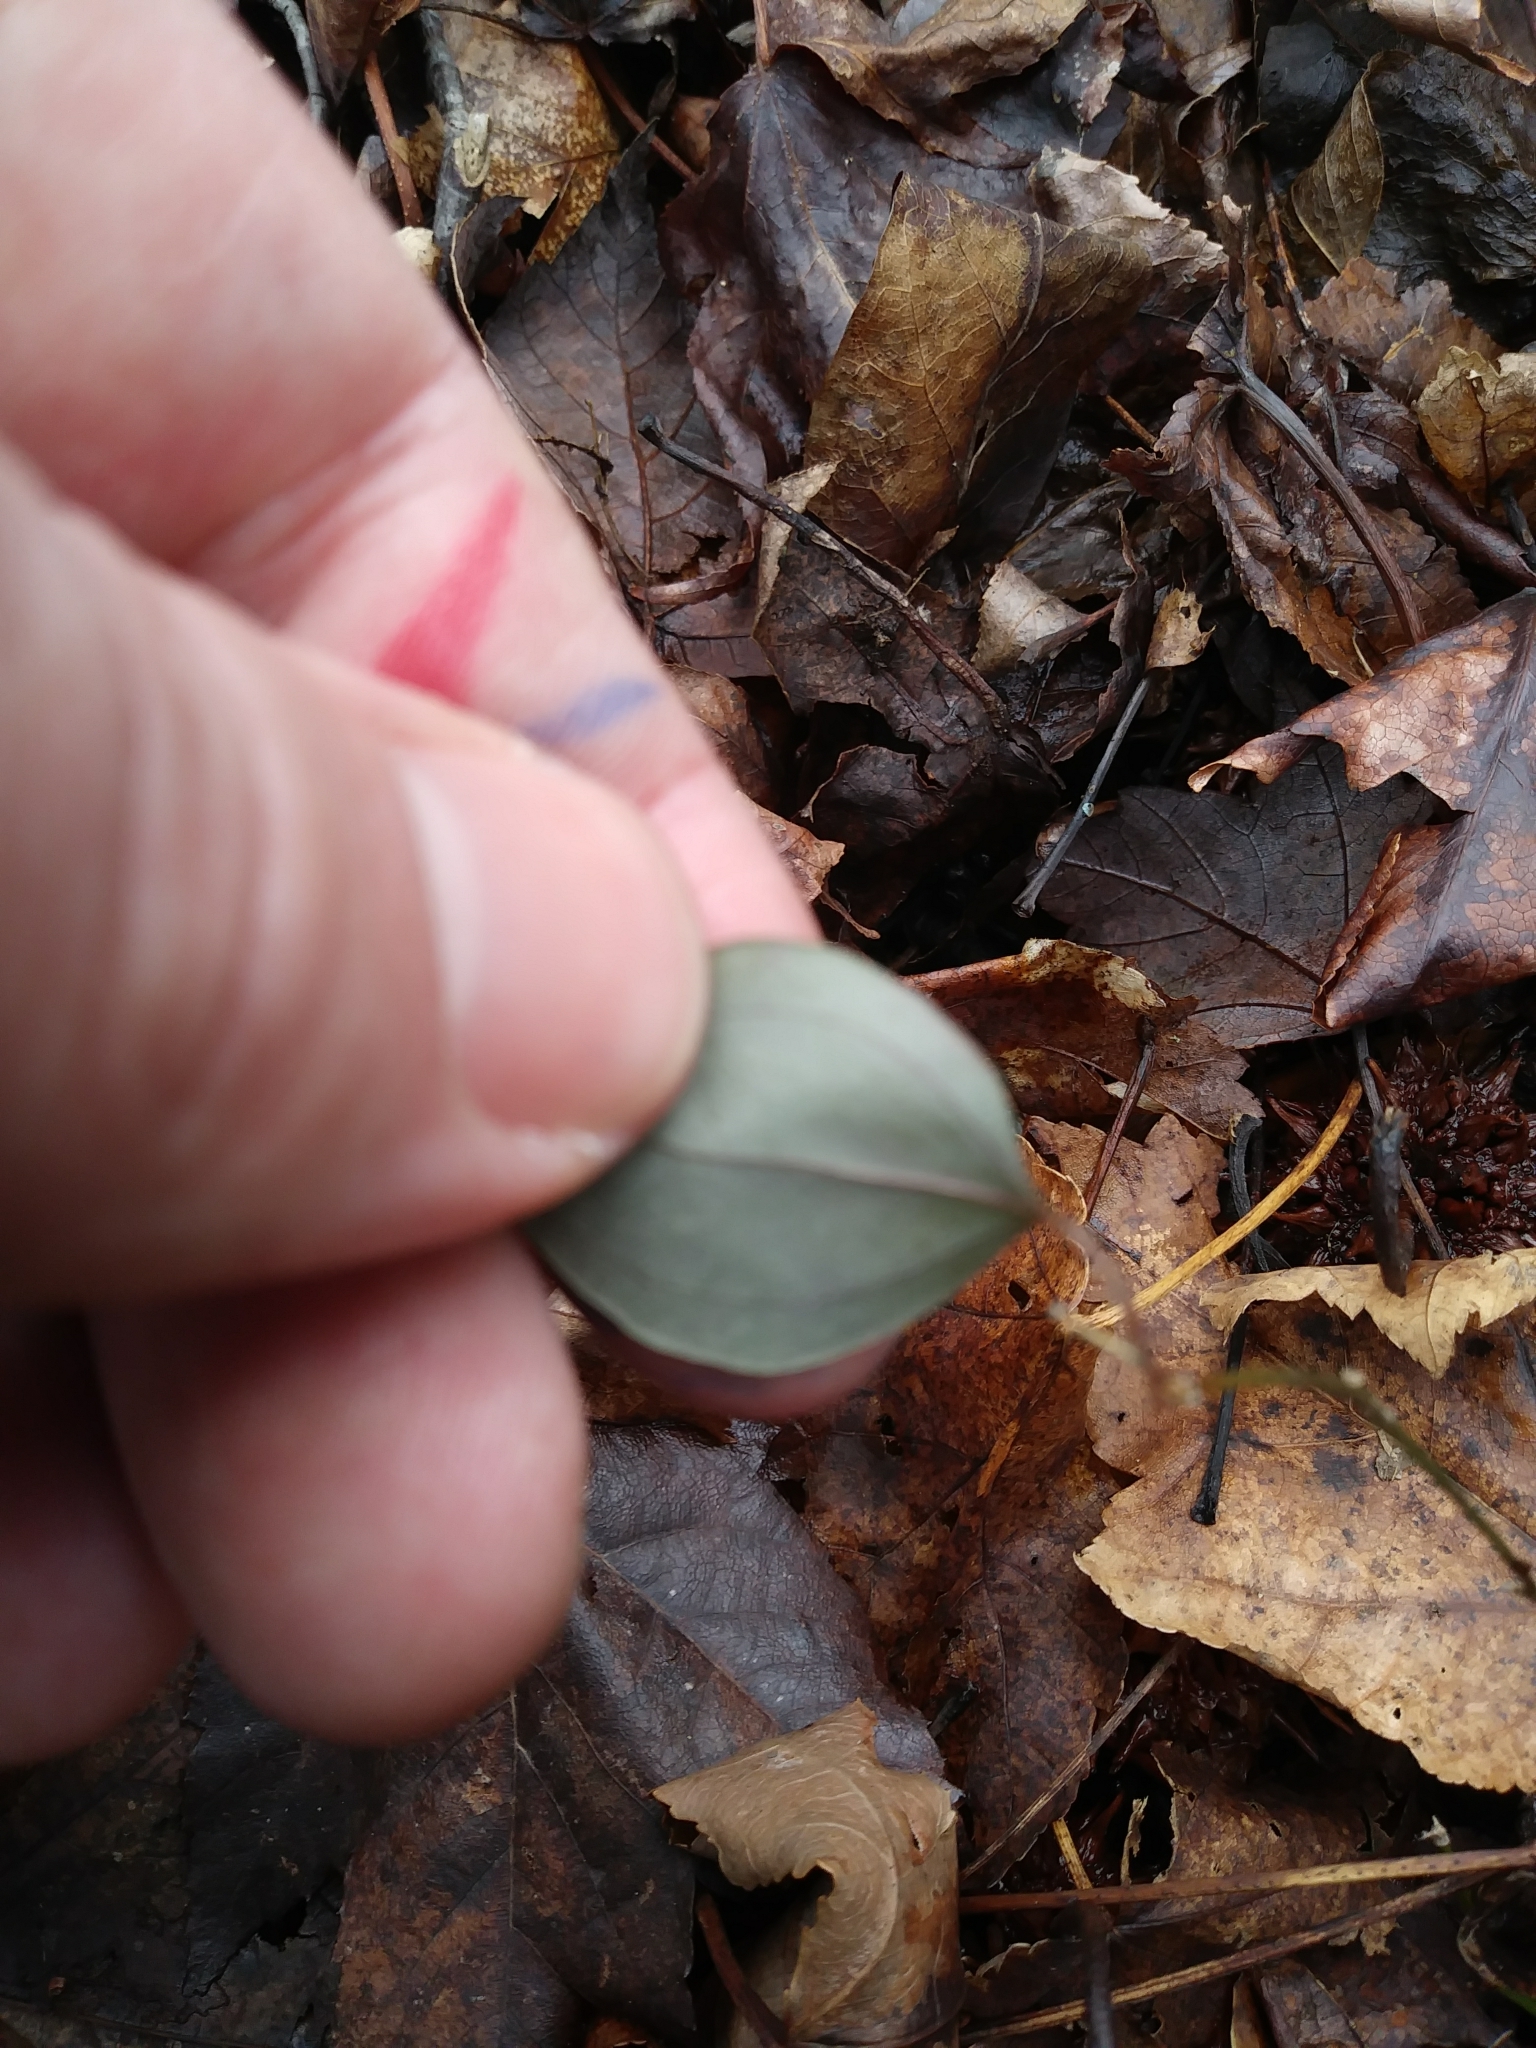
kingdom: Plantae
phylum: Tracheophyta
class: Liliopsida
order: Liliales
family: Smilacaceae
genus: Smilax
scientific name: Smilax glauca
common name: Cat greenbrier
